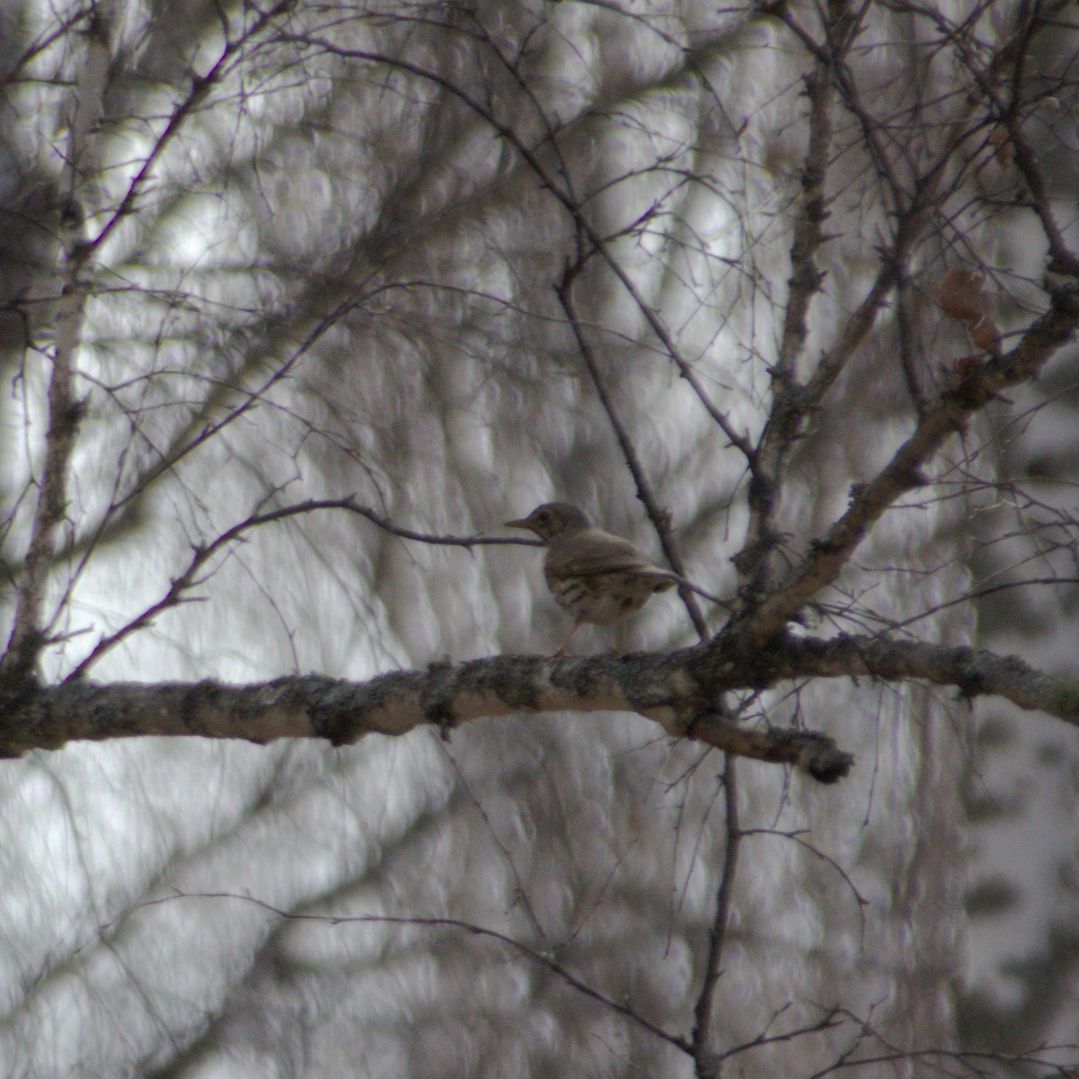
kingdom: Animalia
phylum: Chordata
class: Aves
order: Passeriformes
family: Turdidae
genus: Turdus
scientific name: Turdus philomelos
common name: Song thrush
